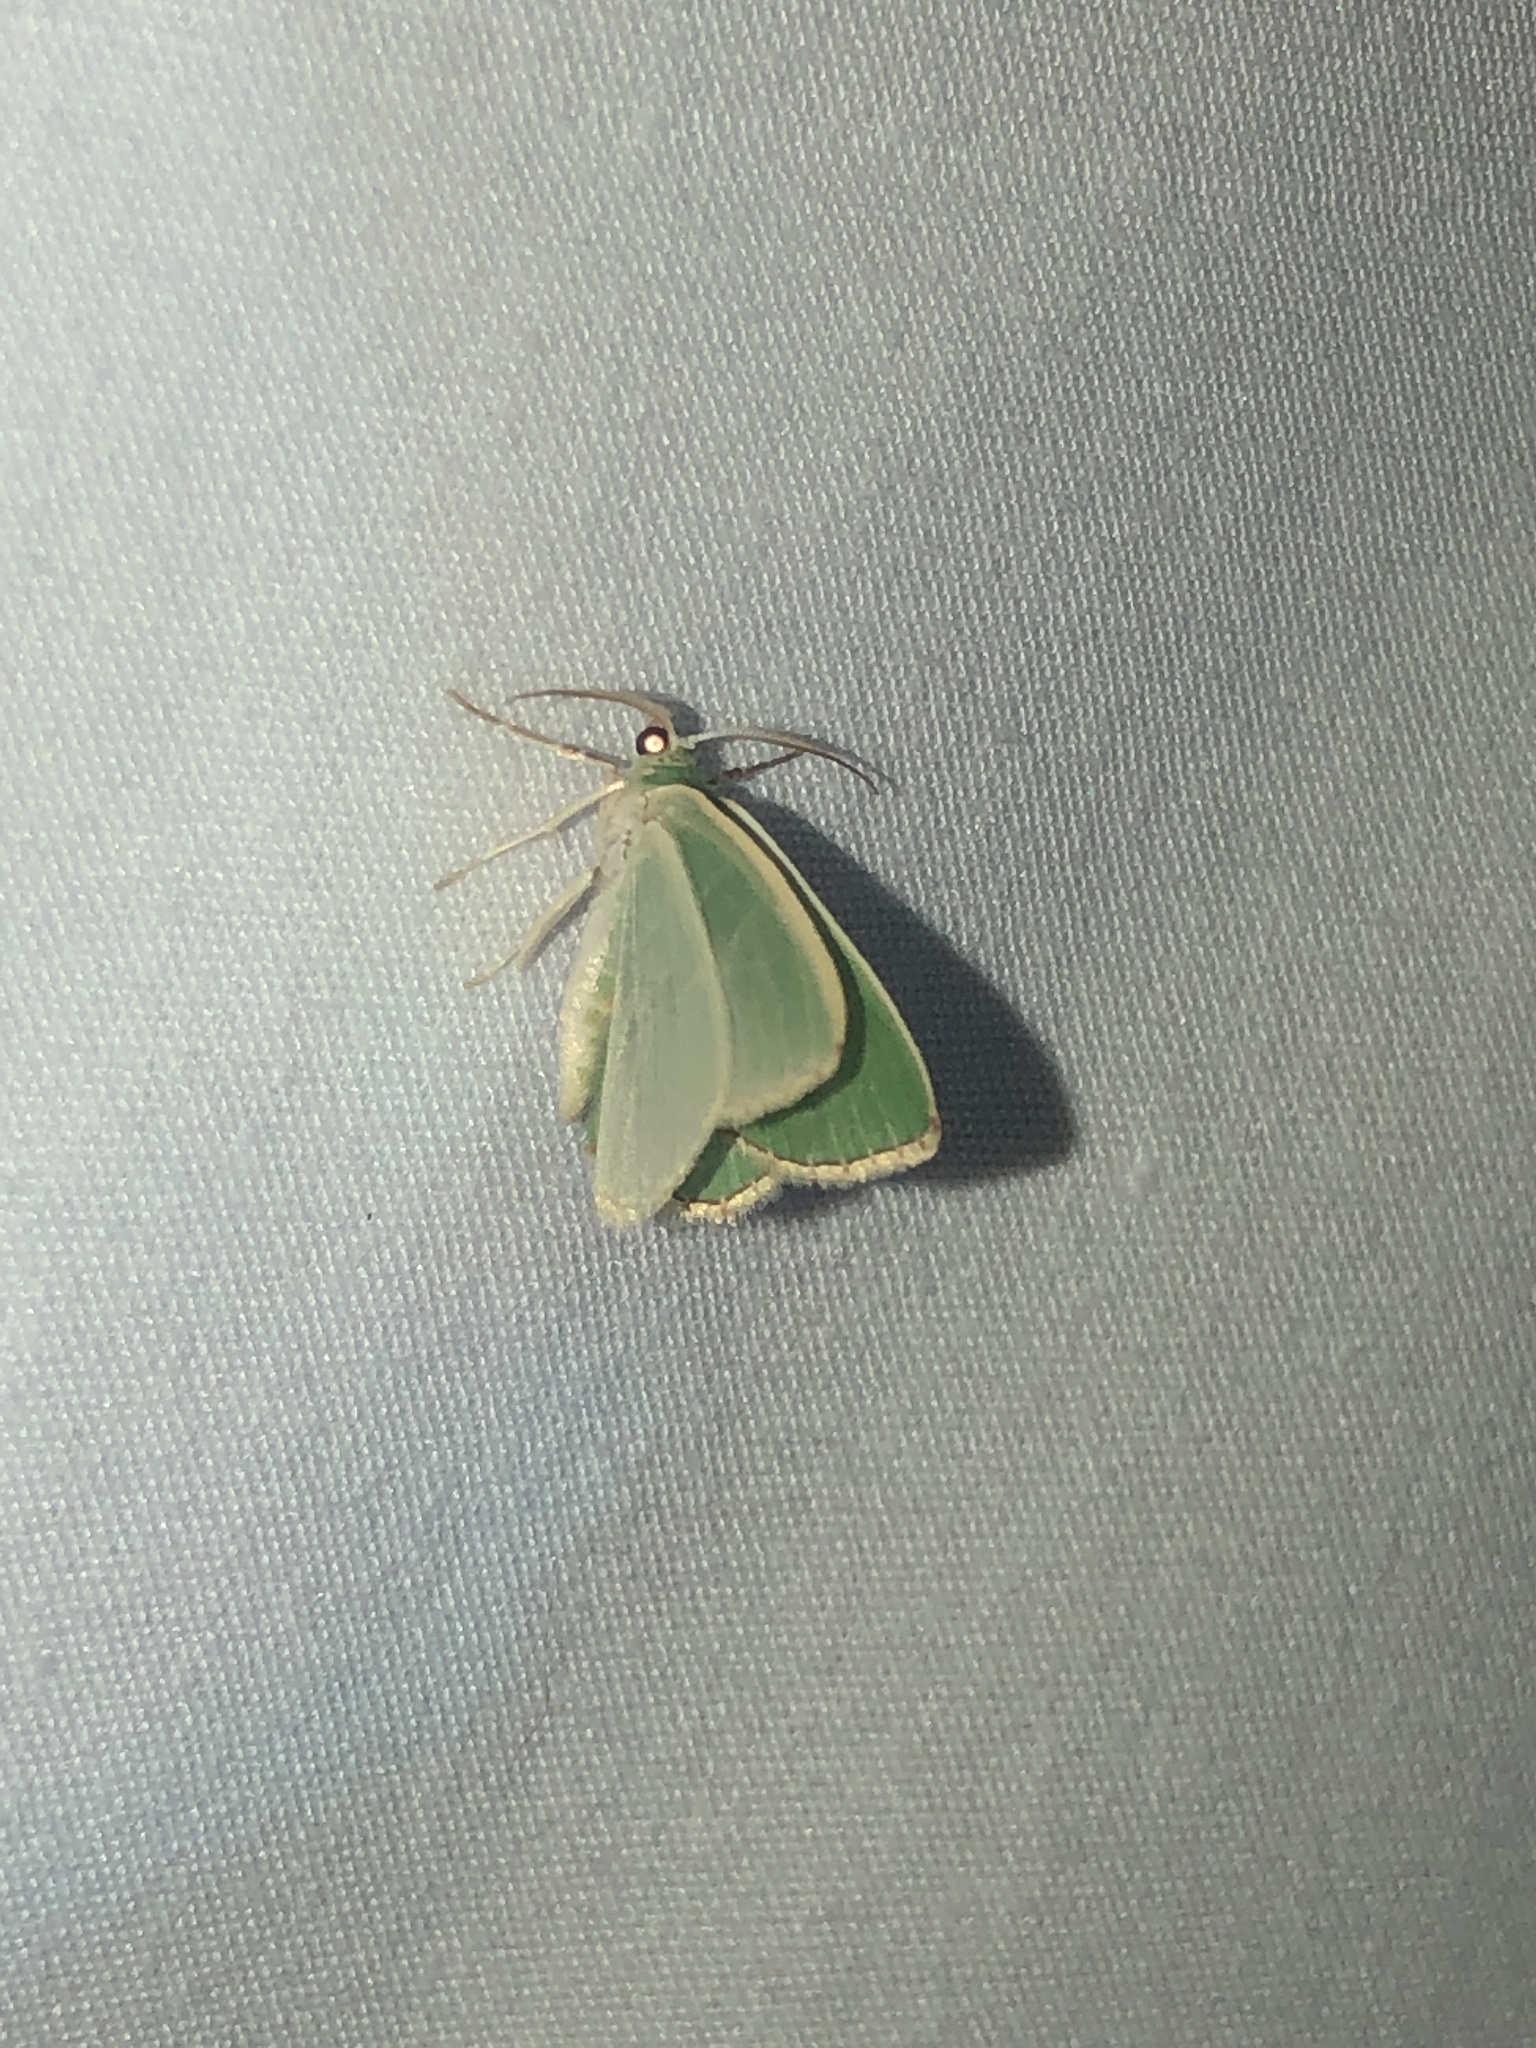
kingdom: Animalia
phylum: Arthropoda
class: Insecta
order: Lepidoptera
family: Geometridae
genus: Nemoria
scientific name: Nemoria bistriaria
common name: Red-fringed emerald
